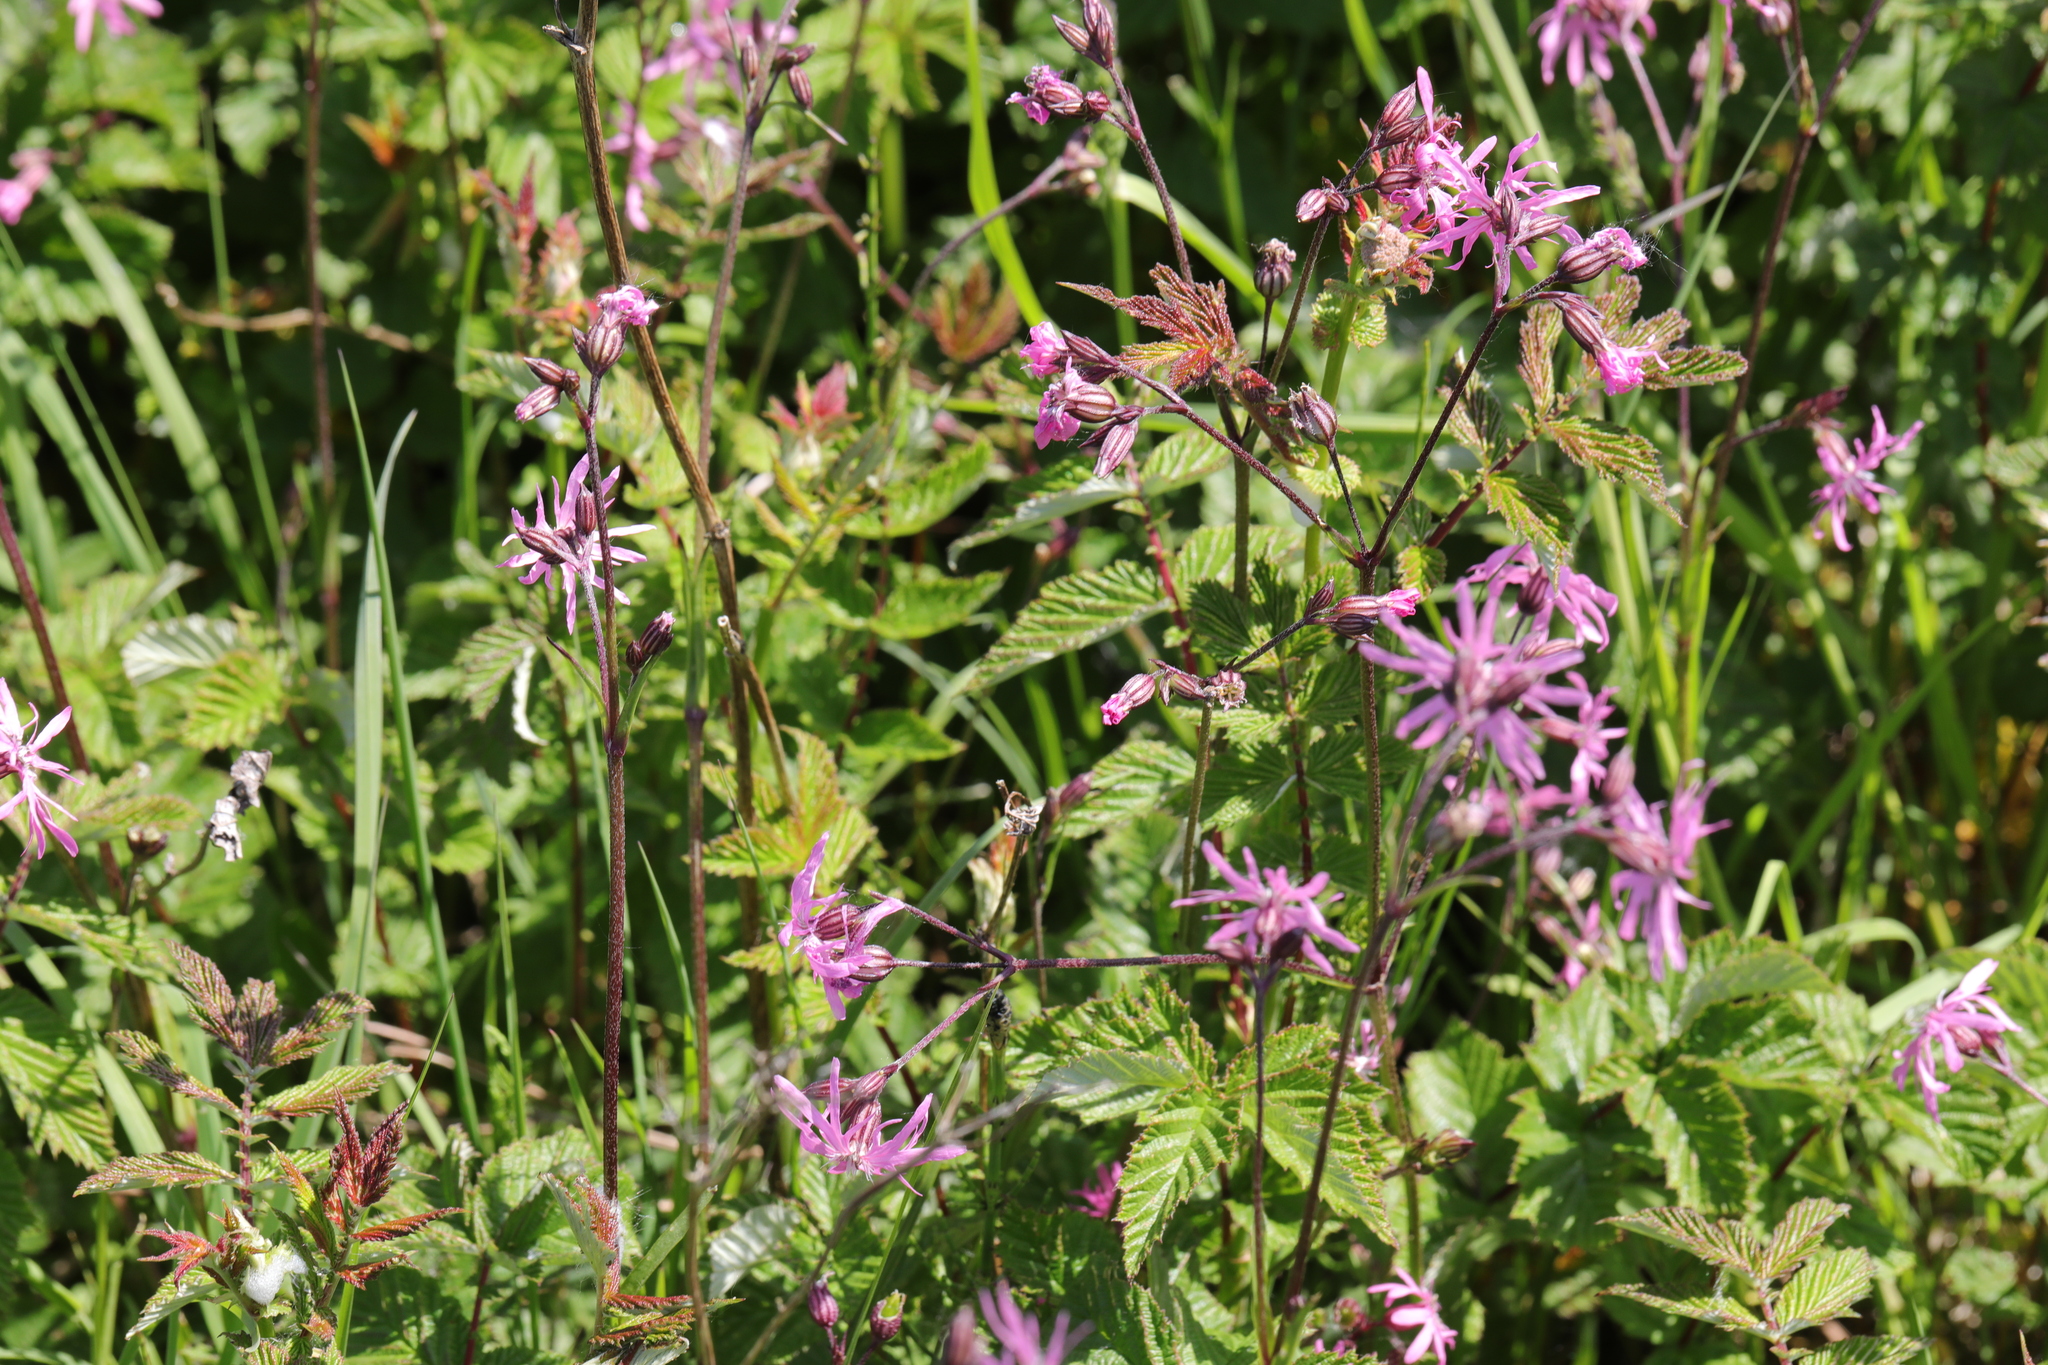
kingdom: Plantae
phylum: Tracheophyta
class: Magnoliopsida
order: Caryophyllales
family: Caryophyllaceae
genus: Silene
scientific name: Silene flos-cuculi
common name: Ragged-robin
